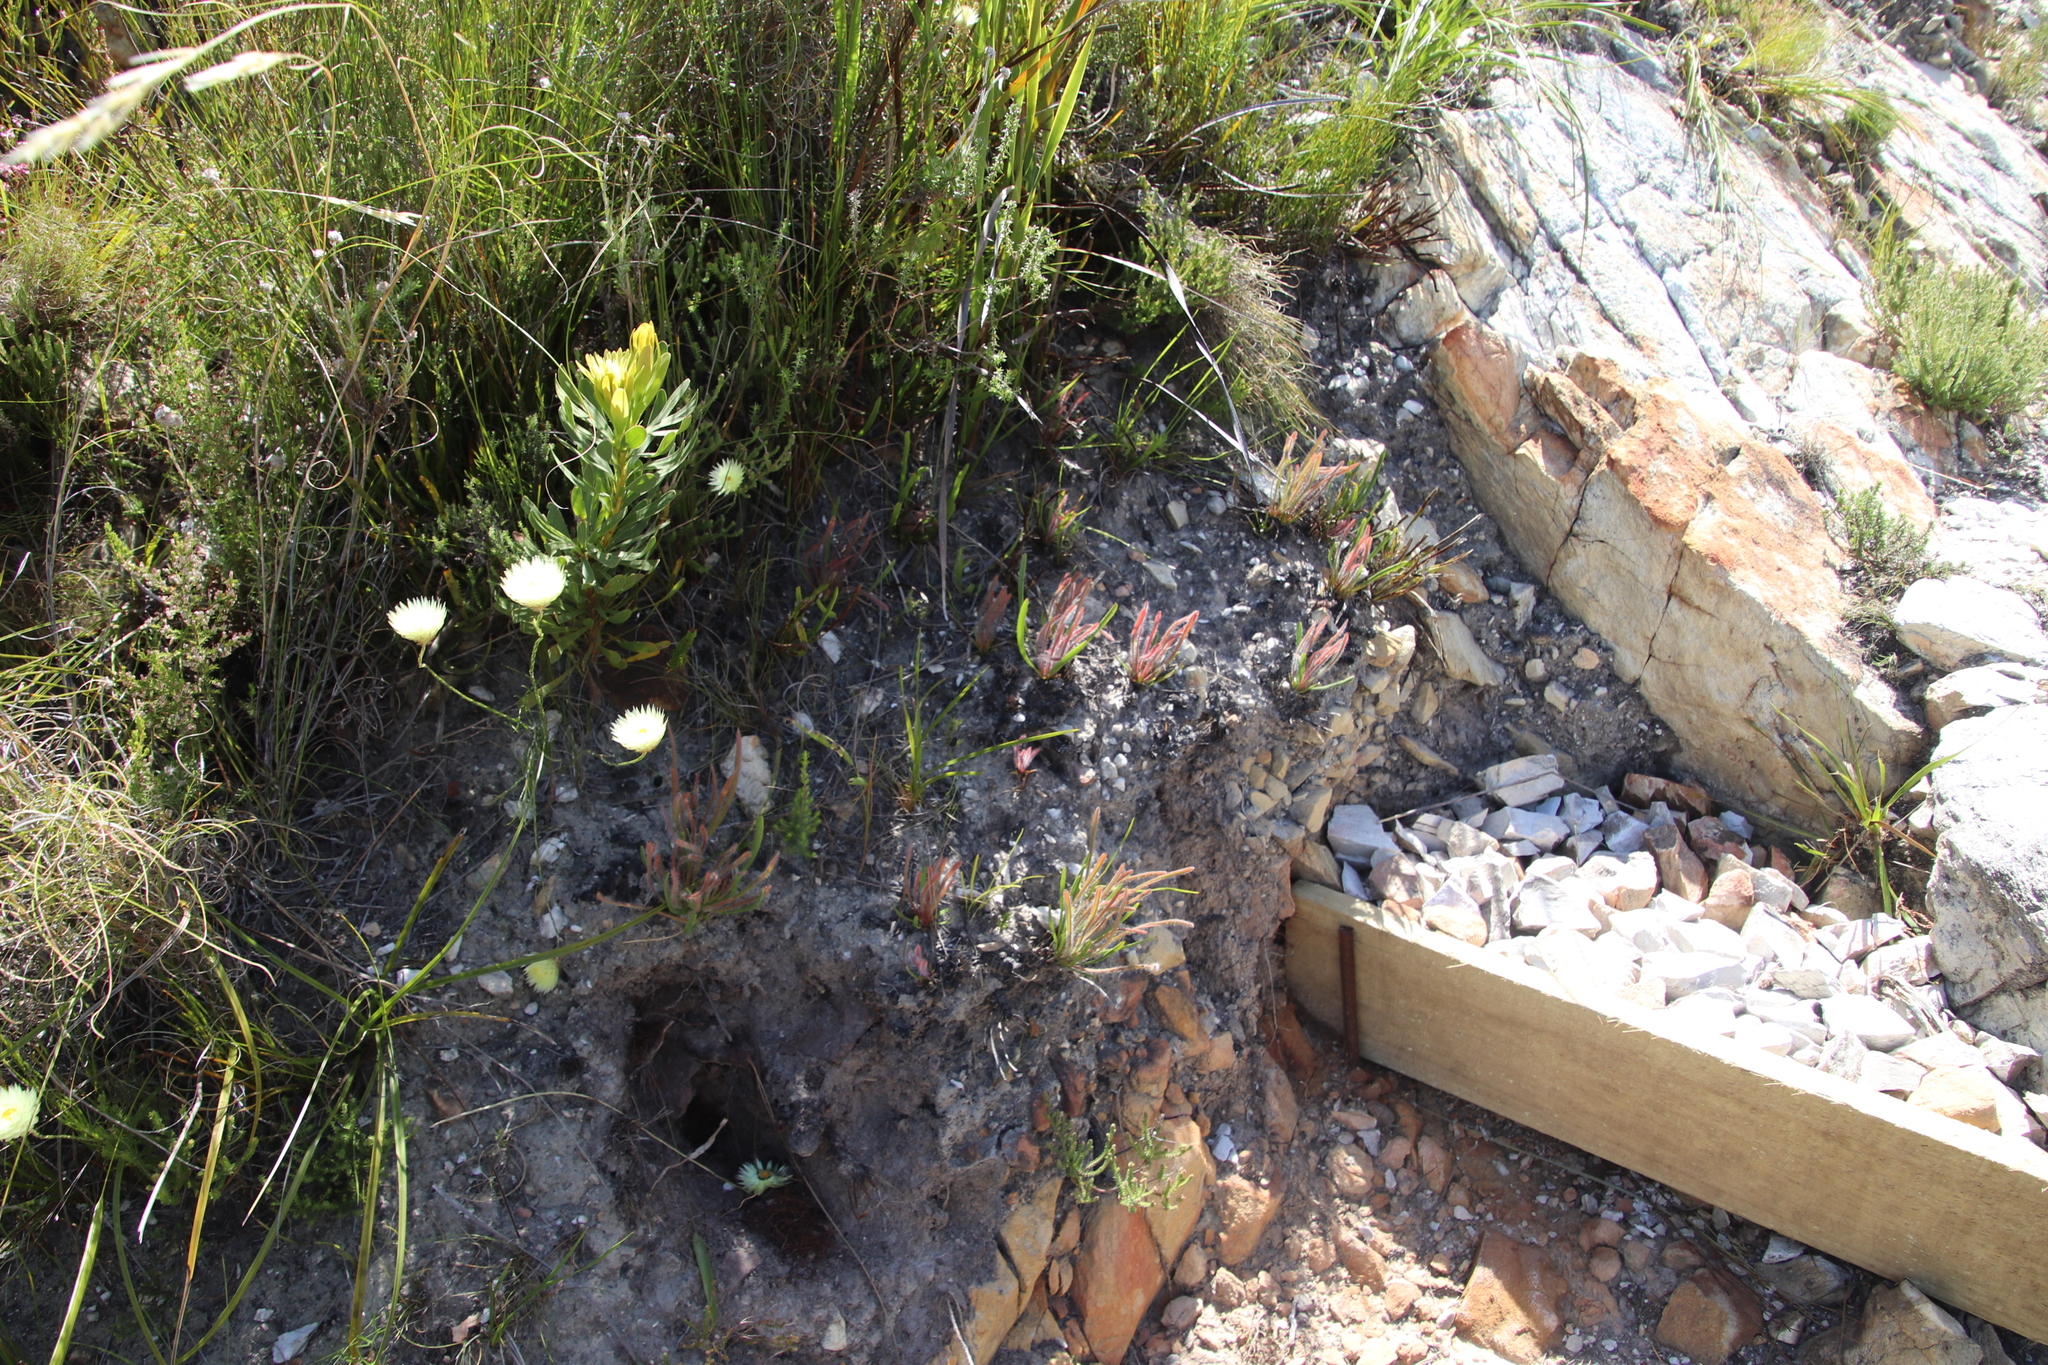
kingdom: Plantae
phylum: Tracheophyta
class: Magnoliopsida
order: Proteales
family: Proteaceae
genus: Protea
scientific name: Protea scabra
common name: Sandpaper-leaf sugarbush
